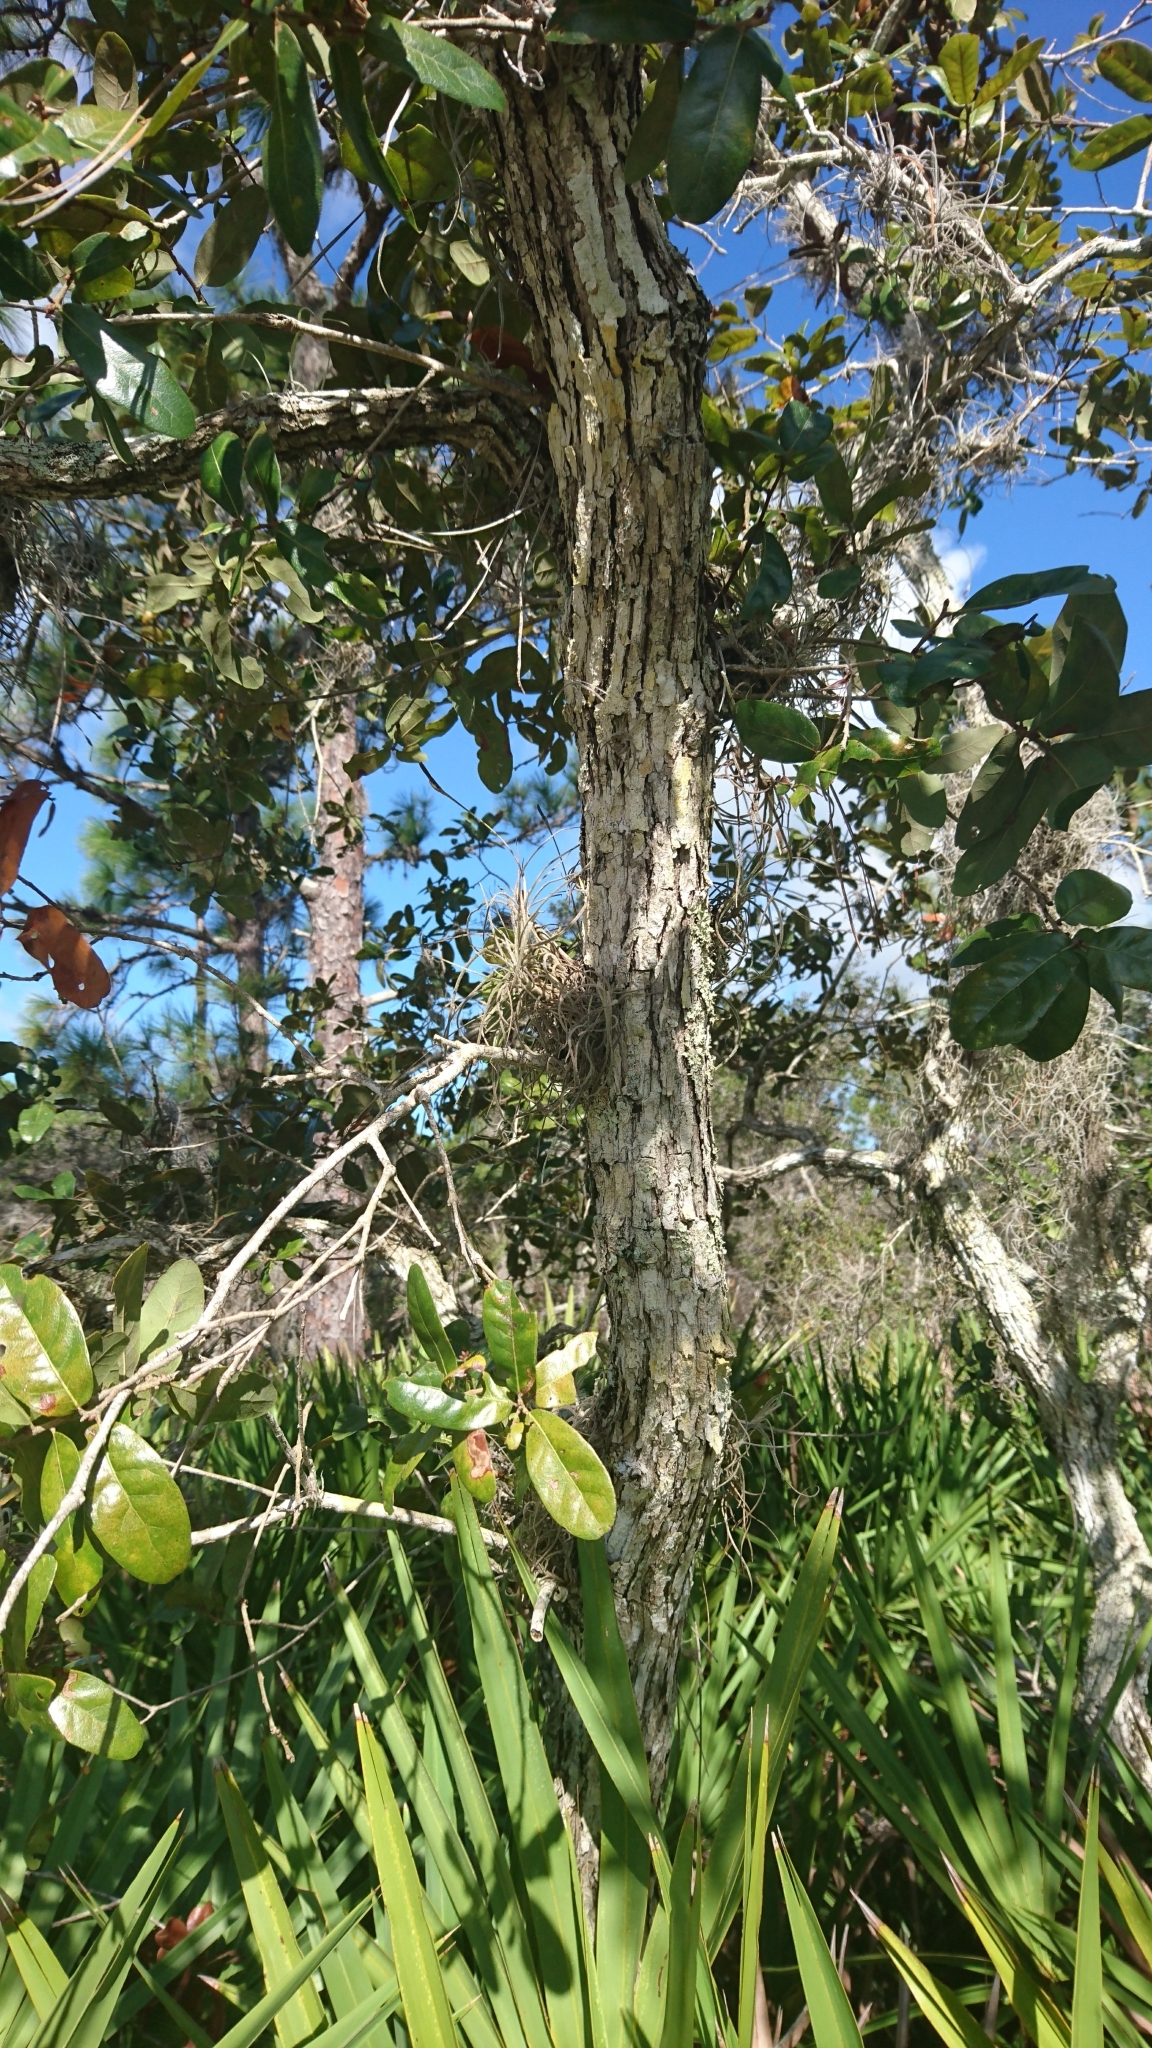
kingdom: Plantae
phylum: Tracheophyta
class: Magnoliopsida
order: Fagales
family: Fagaceae
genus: Quercus
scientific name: Quercus chapmanii
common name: Chapman oak
